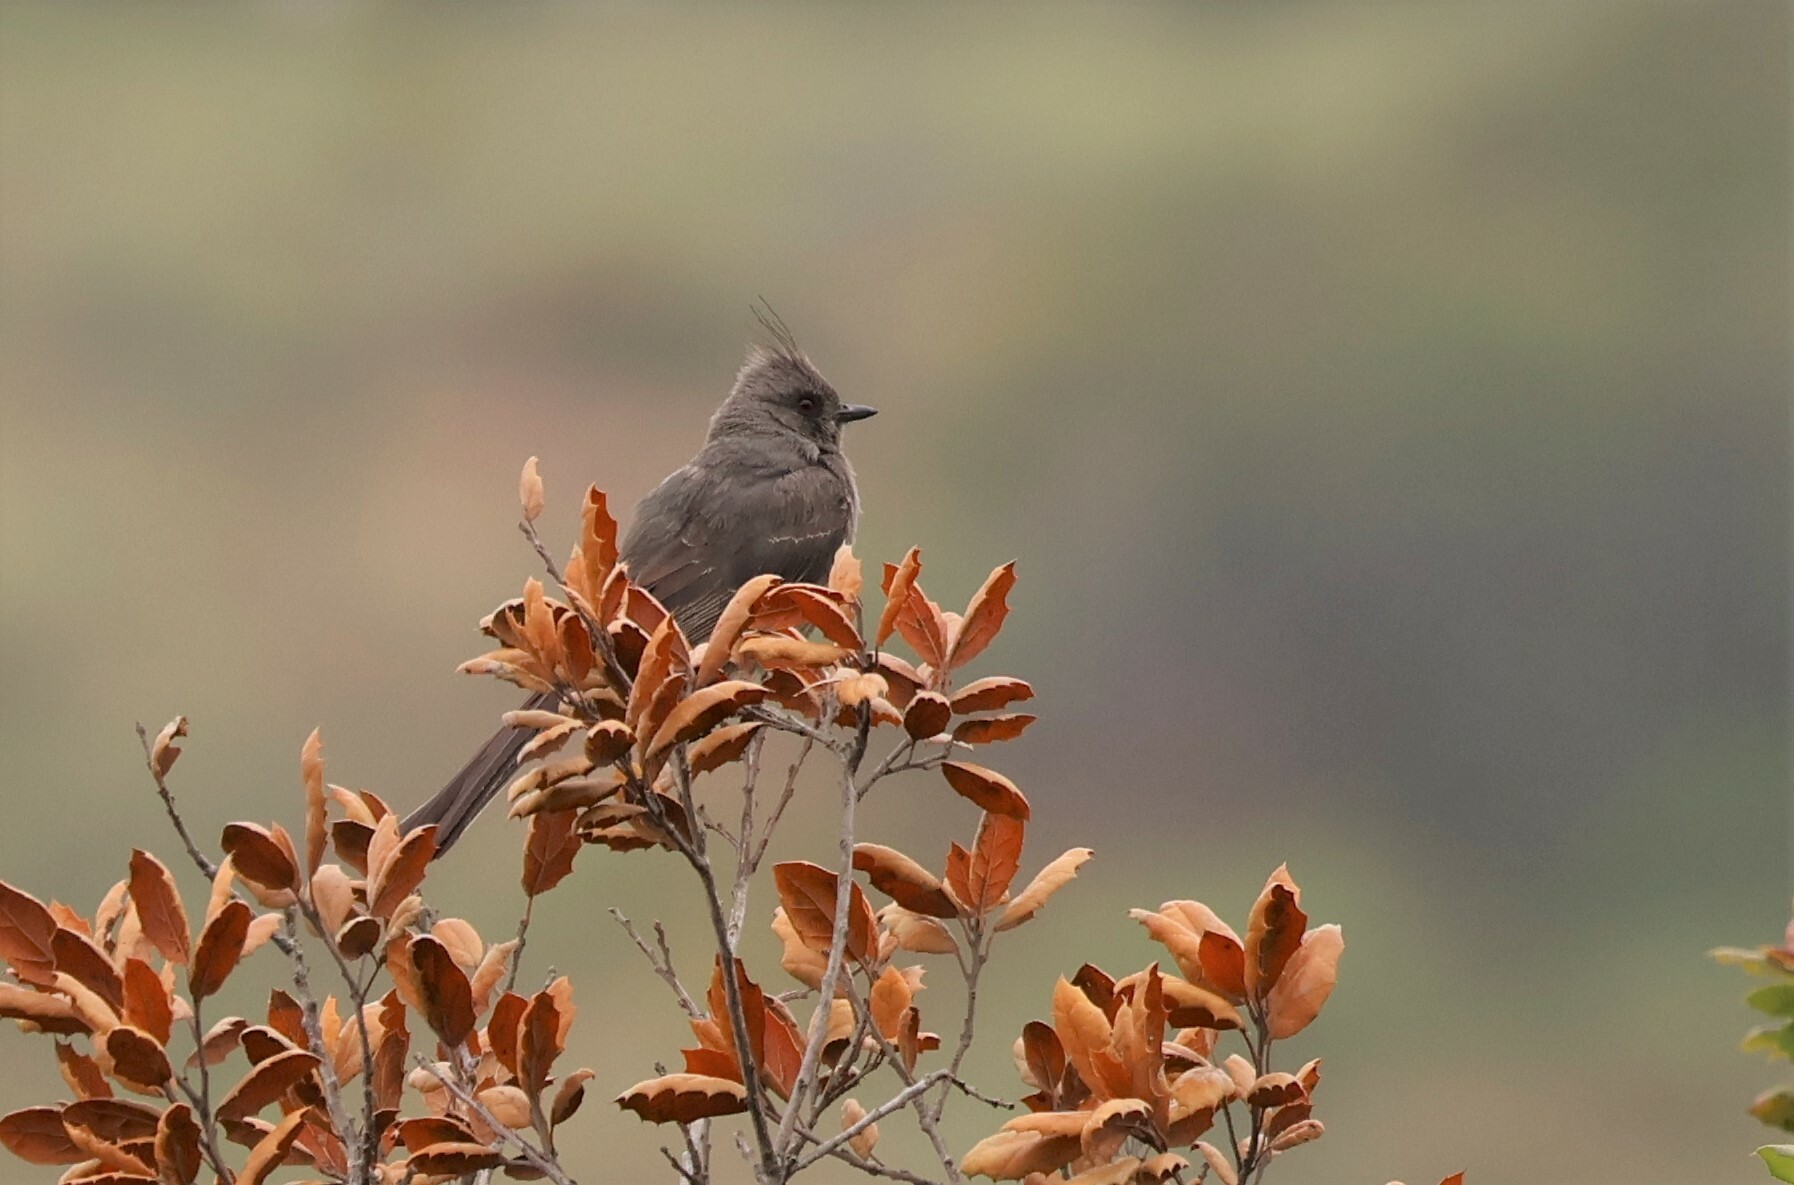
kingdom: Animalia
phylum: Chordata
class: Aves
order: Passeriformes
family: Ptilogonatidae
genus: Phainopepla
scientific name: Phainopepla nitens
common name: Phainopepla
